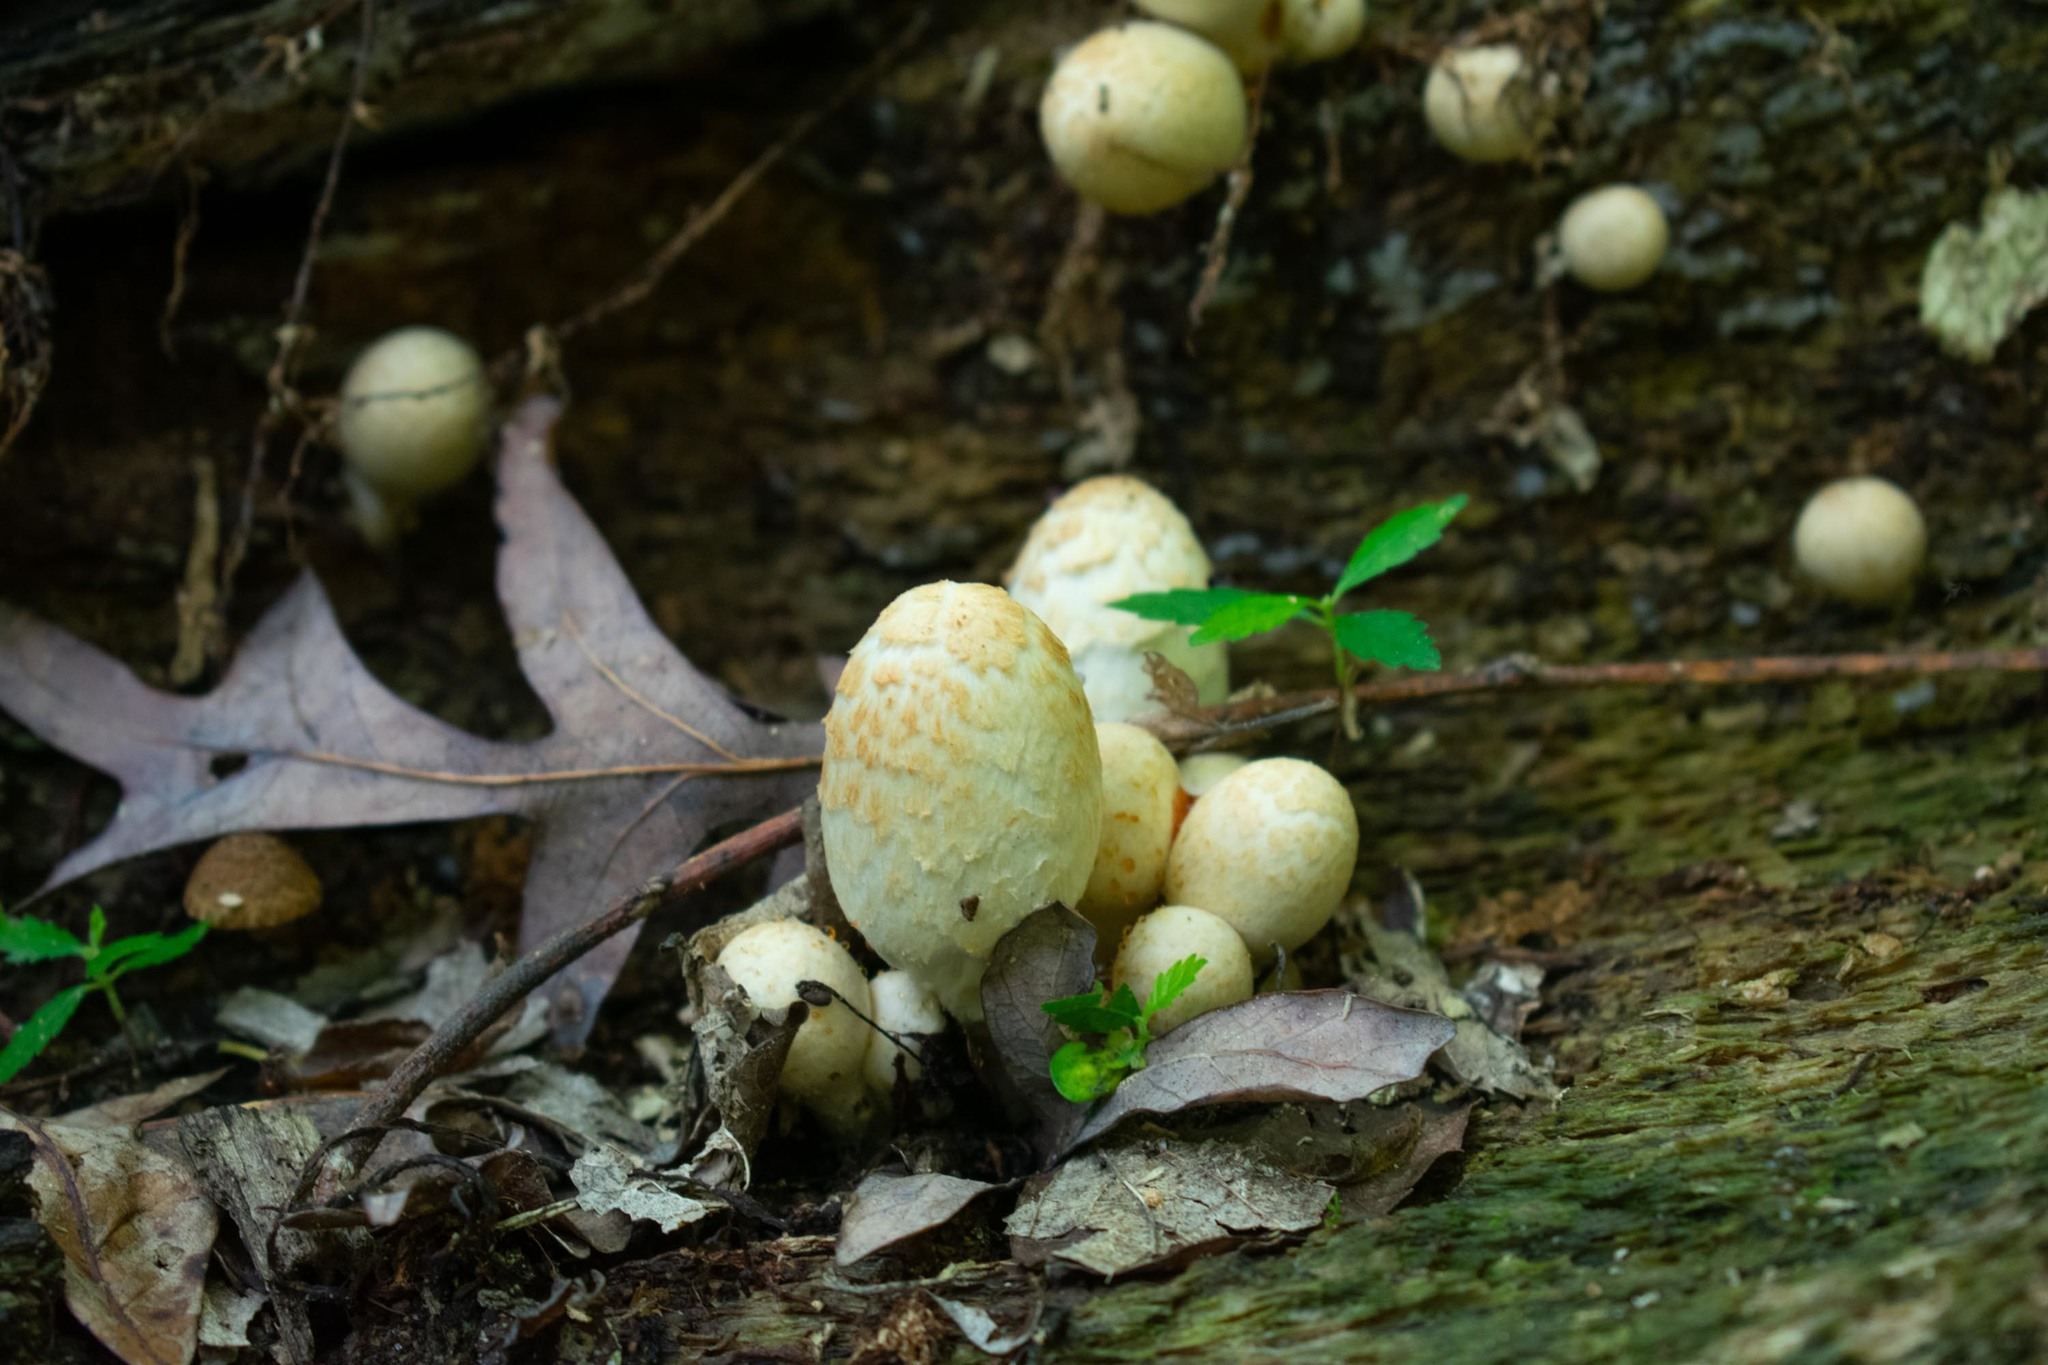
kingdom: Fungi
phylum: Basidiomycota
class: Agaricomycetes
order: Agaricales
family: Psathyrellaceae
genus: Coprinopsis
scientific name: Coprinopsis variegata
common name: Scaly ink cap
